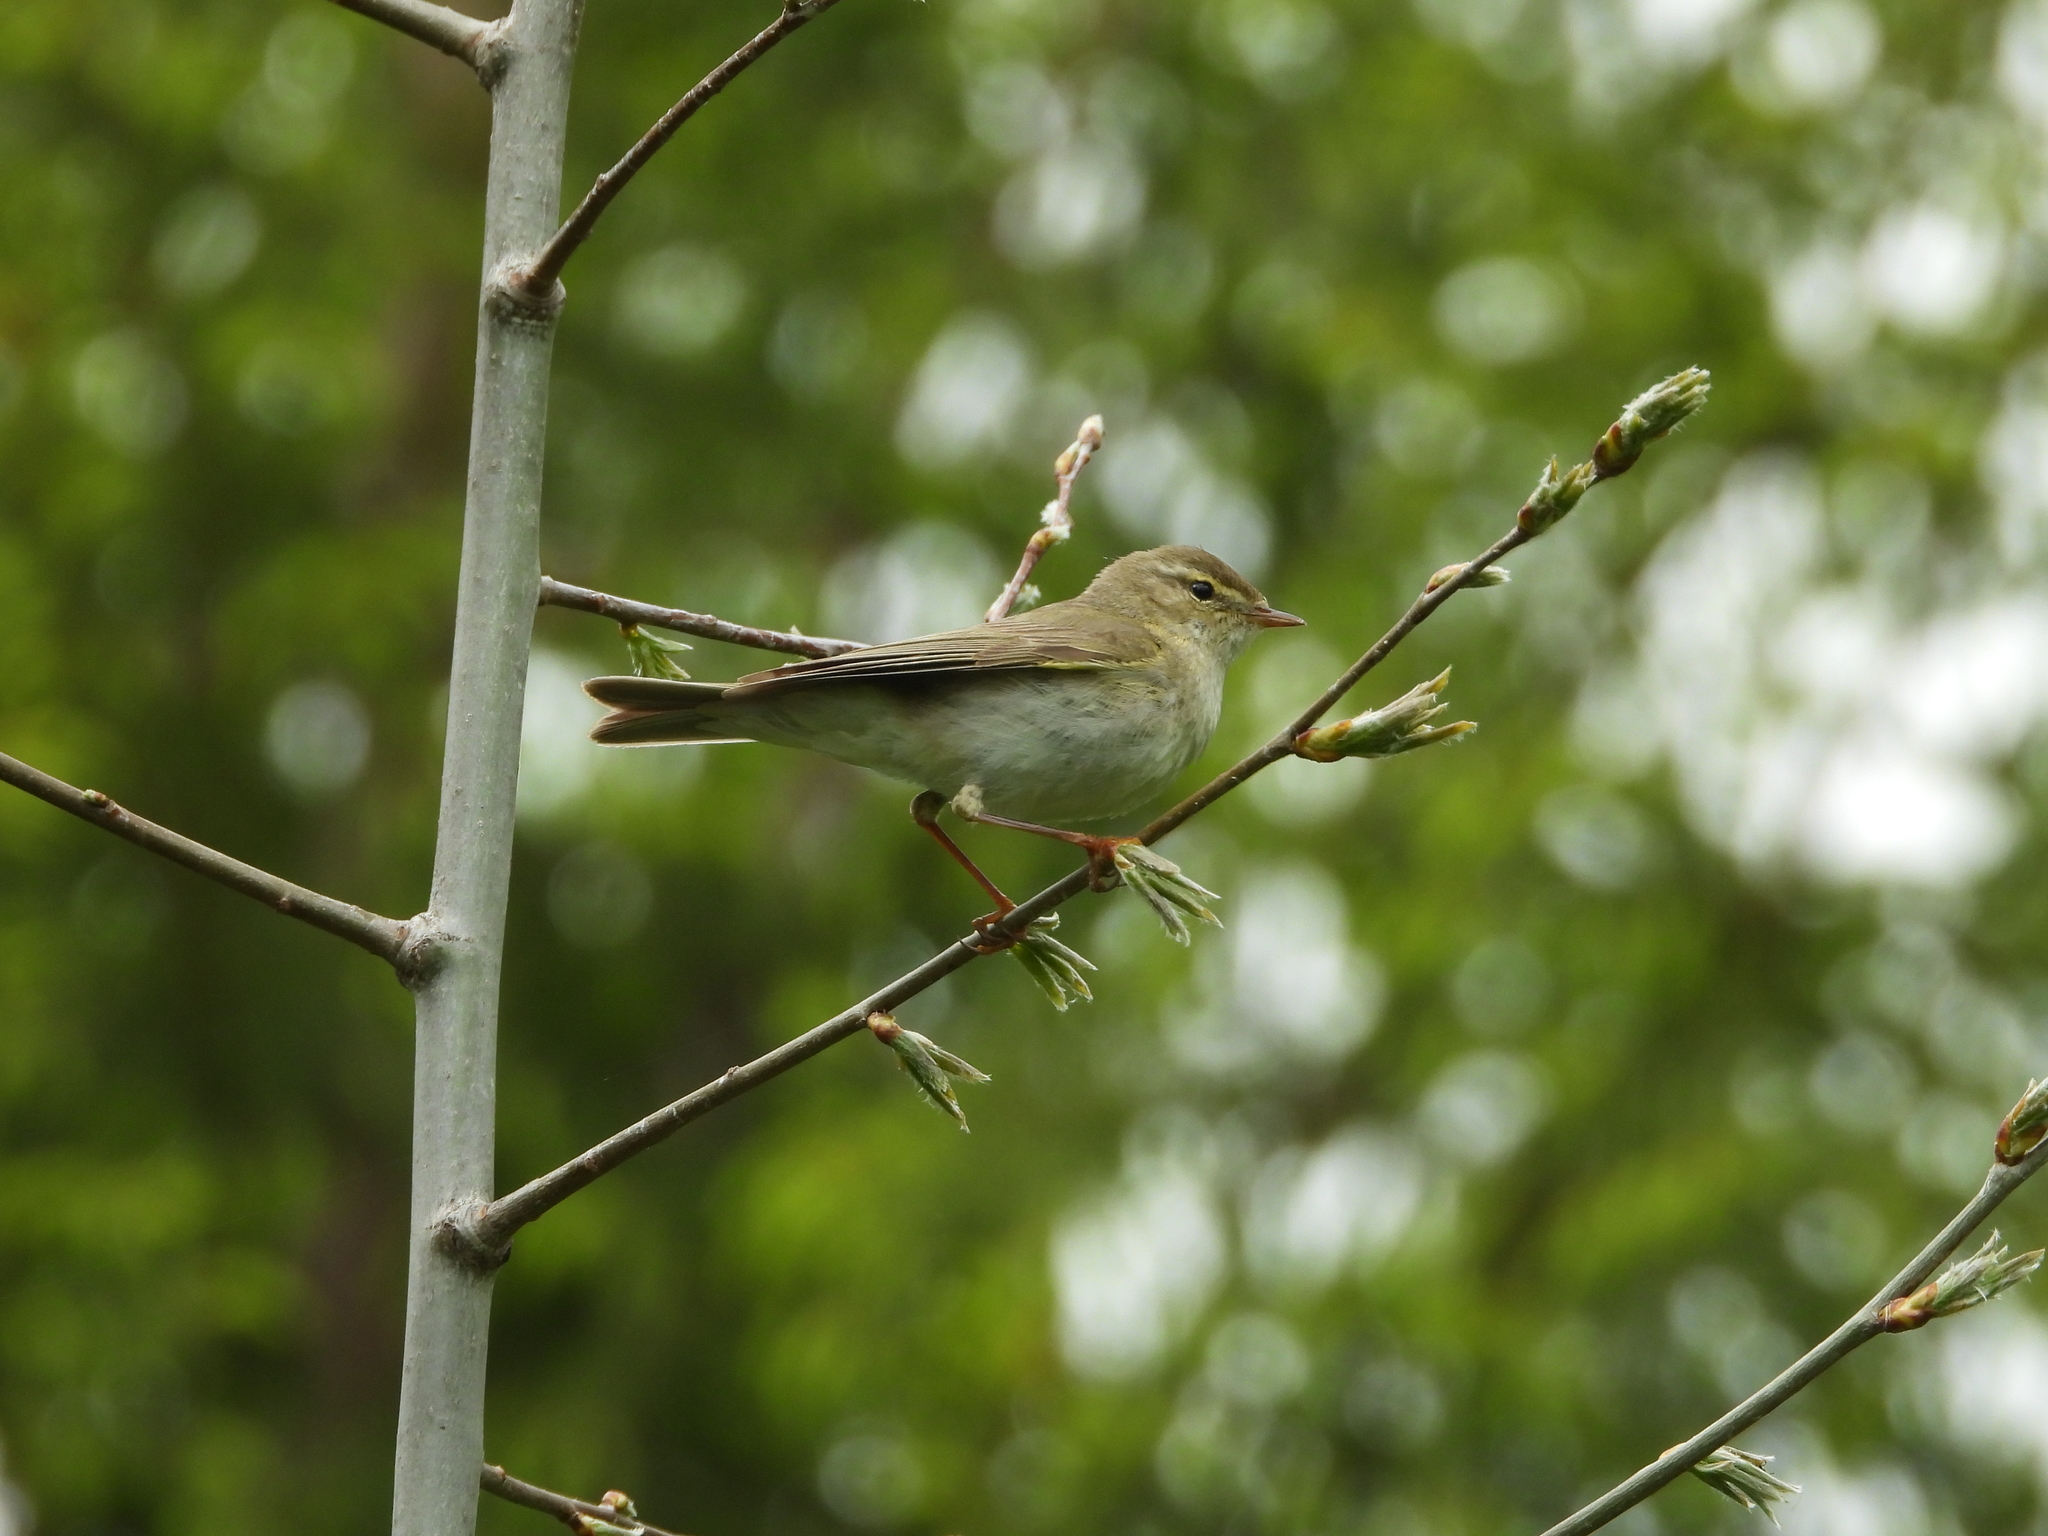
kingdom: Animalia
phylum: Chordata
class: Aves
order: Passeriformes
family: Phylloscopidae
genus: Phylloscopus
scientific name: Phylloscopus trochilus
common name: Willow warbler
